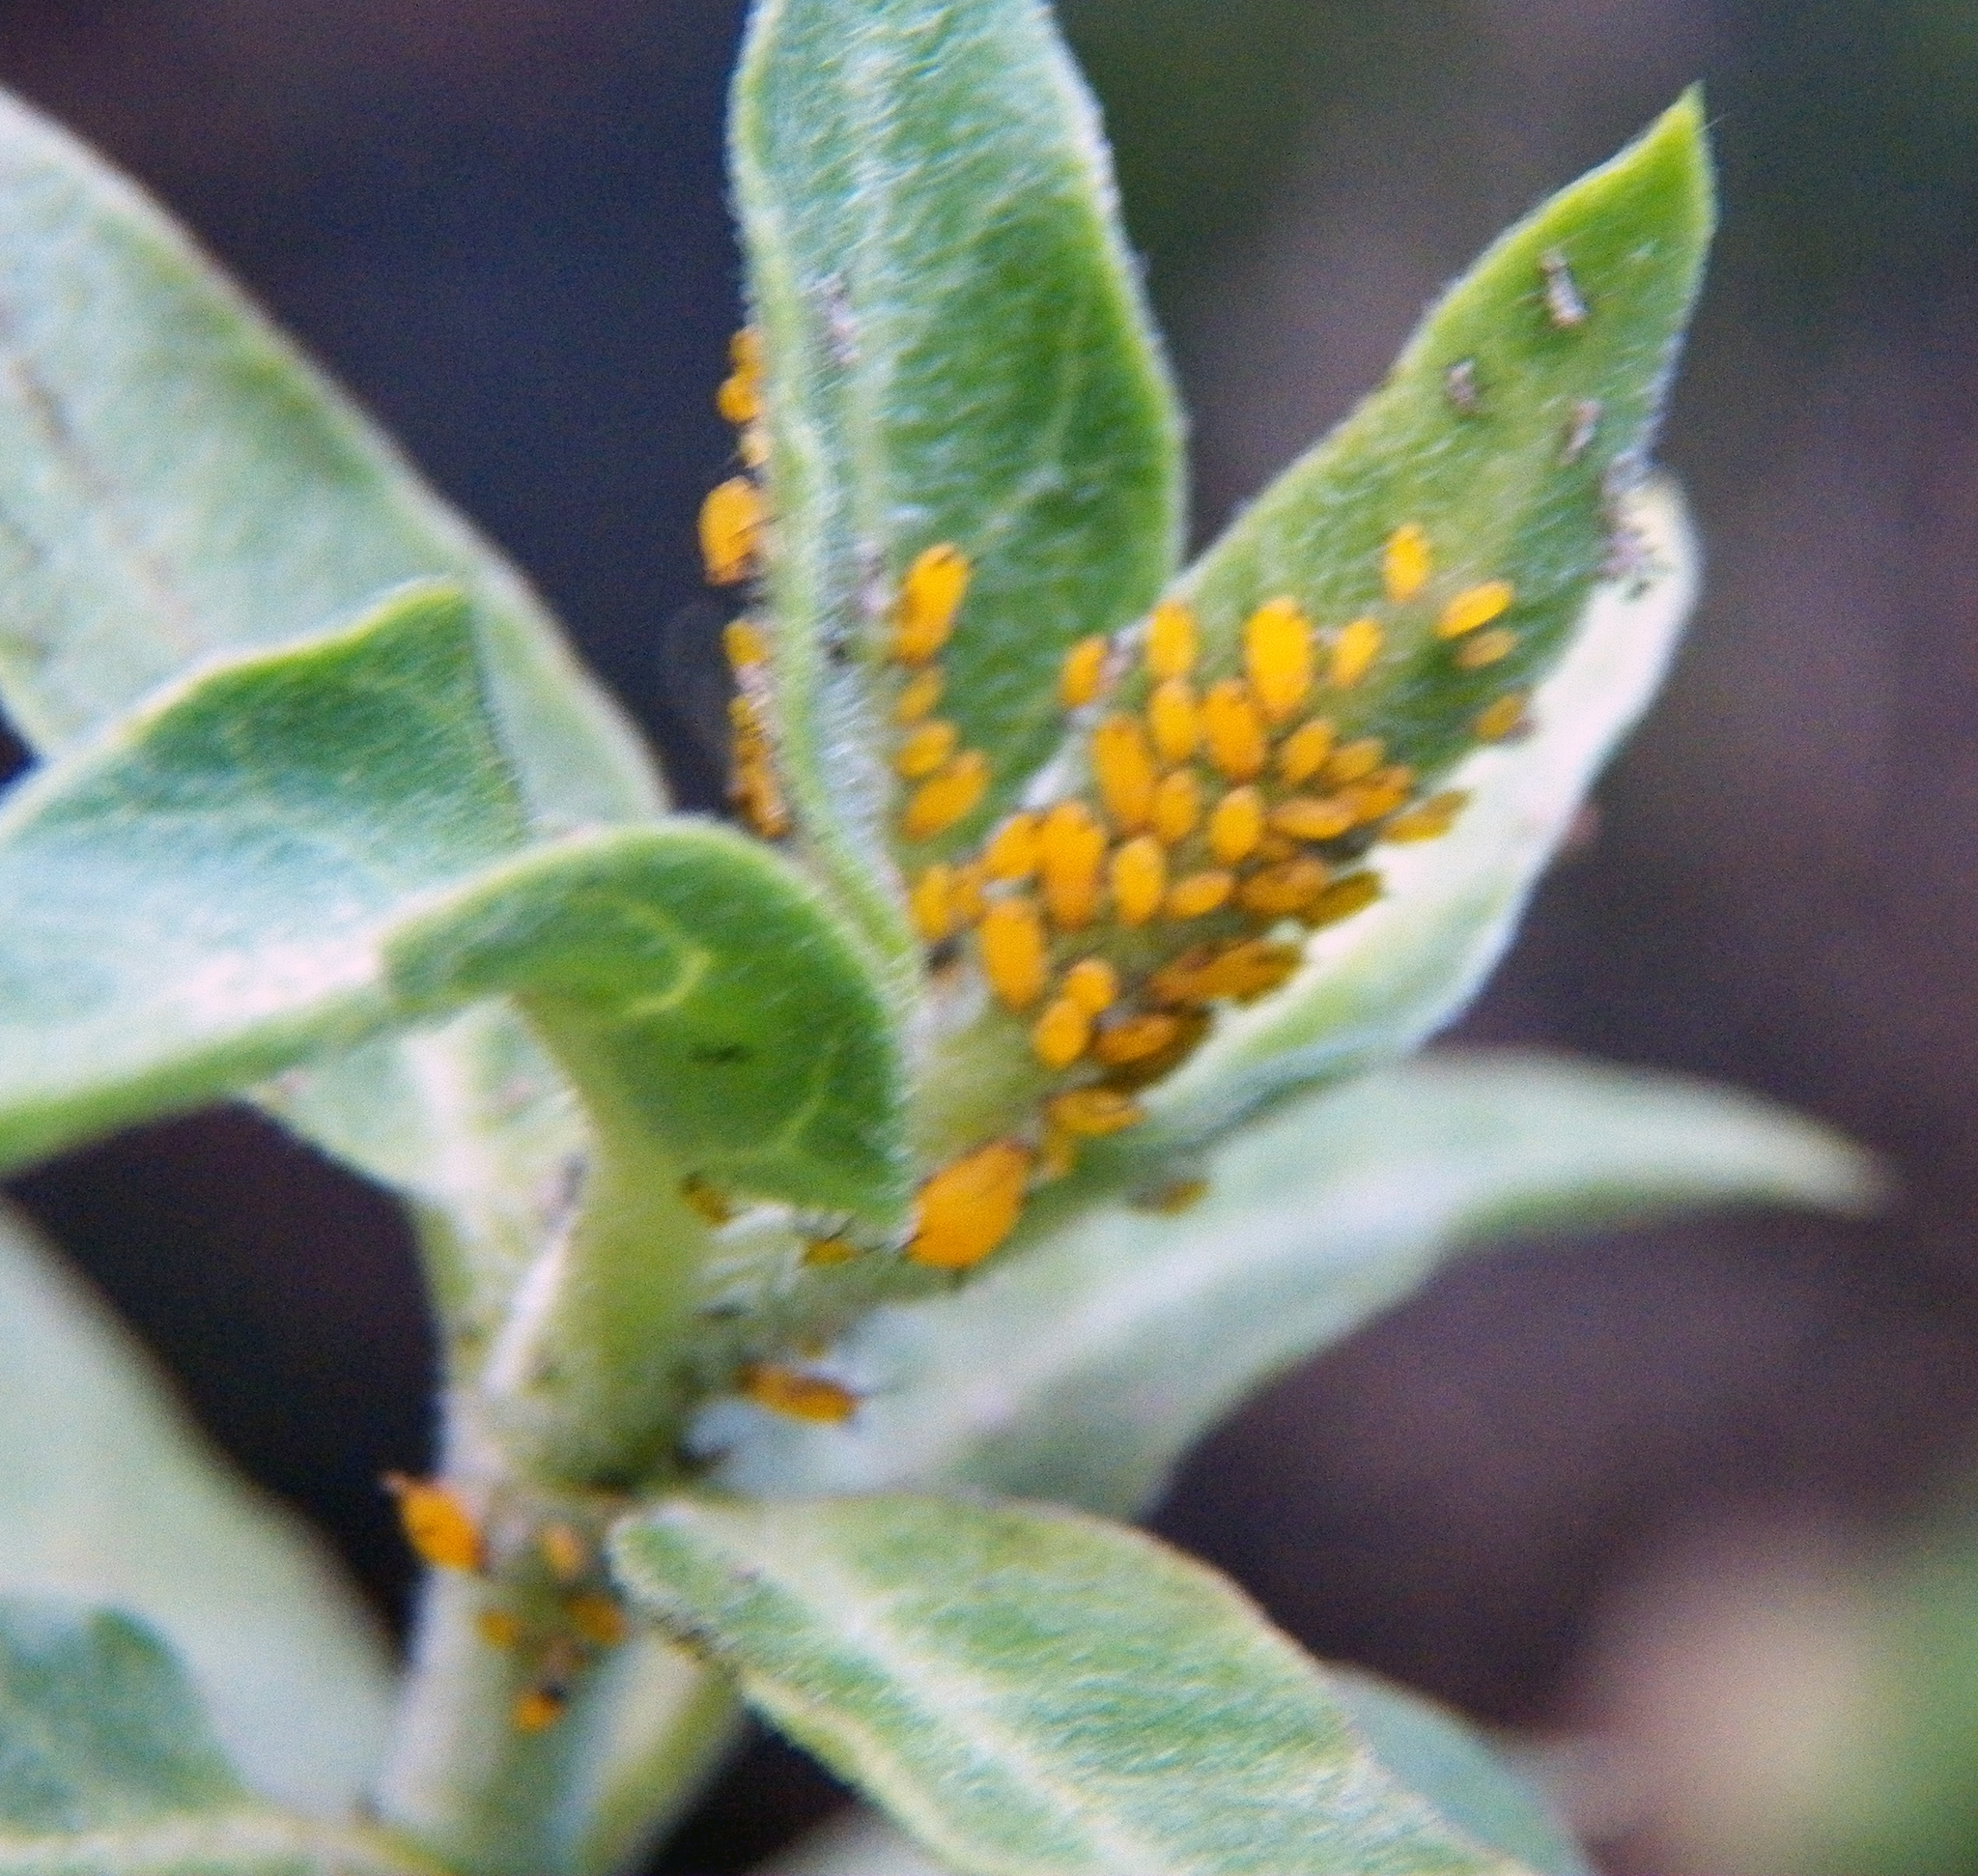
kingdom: Animalia
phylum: Arthropoda
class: Insecta
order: Hemiptera
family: Aphididae
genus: Aphis
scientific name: Aphis nerii
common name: Oleander aphid
